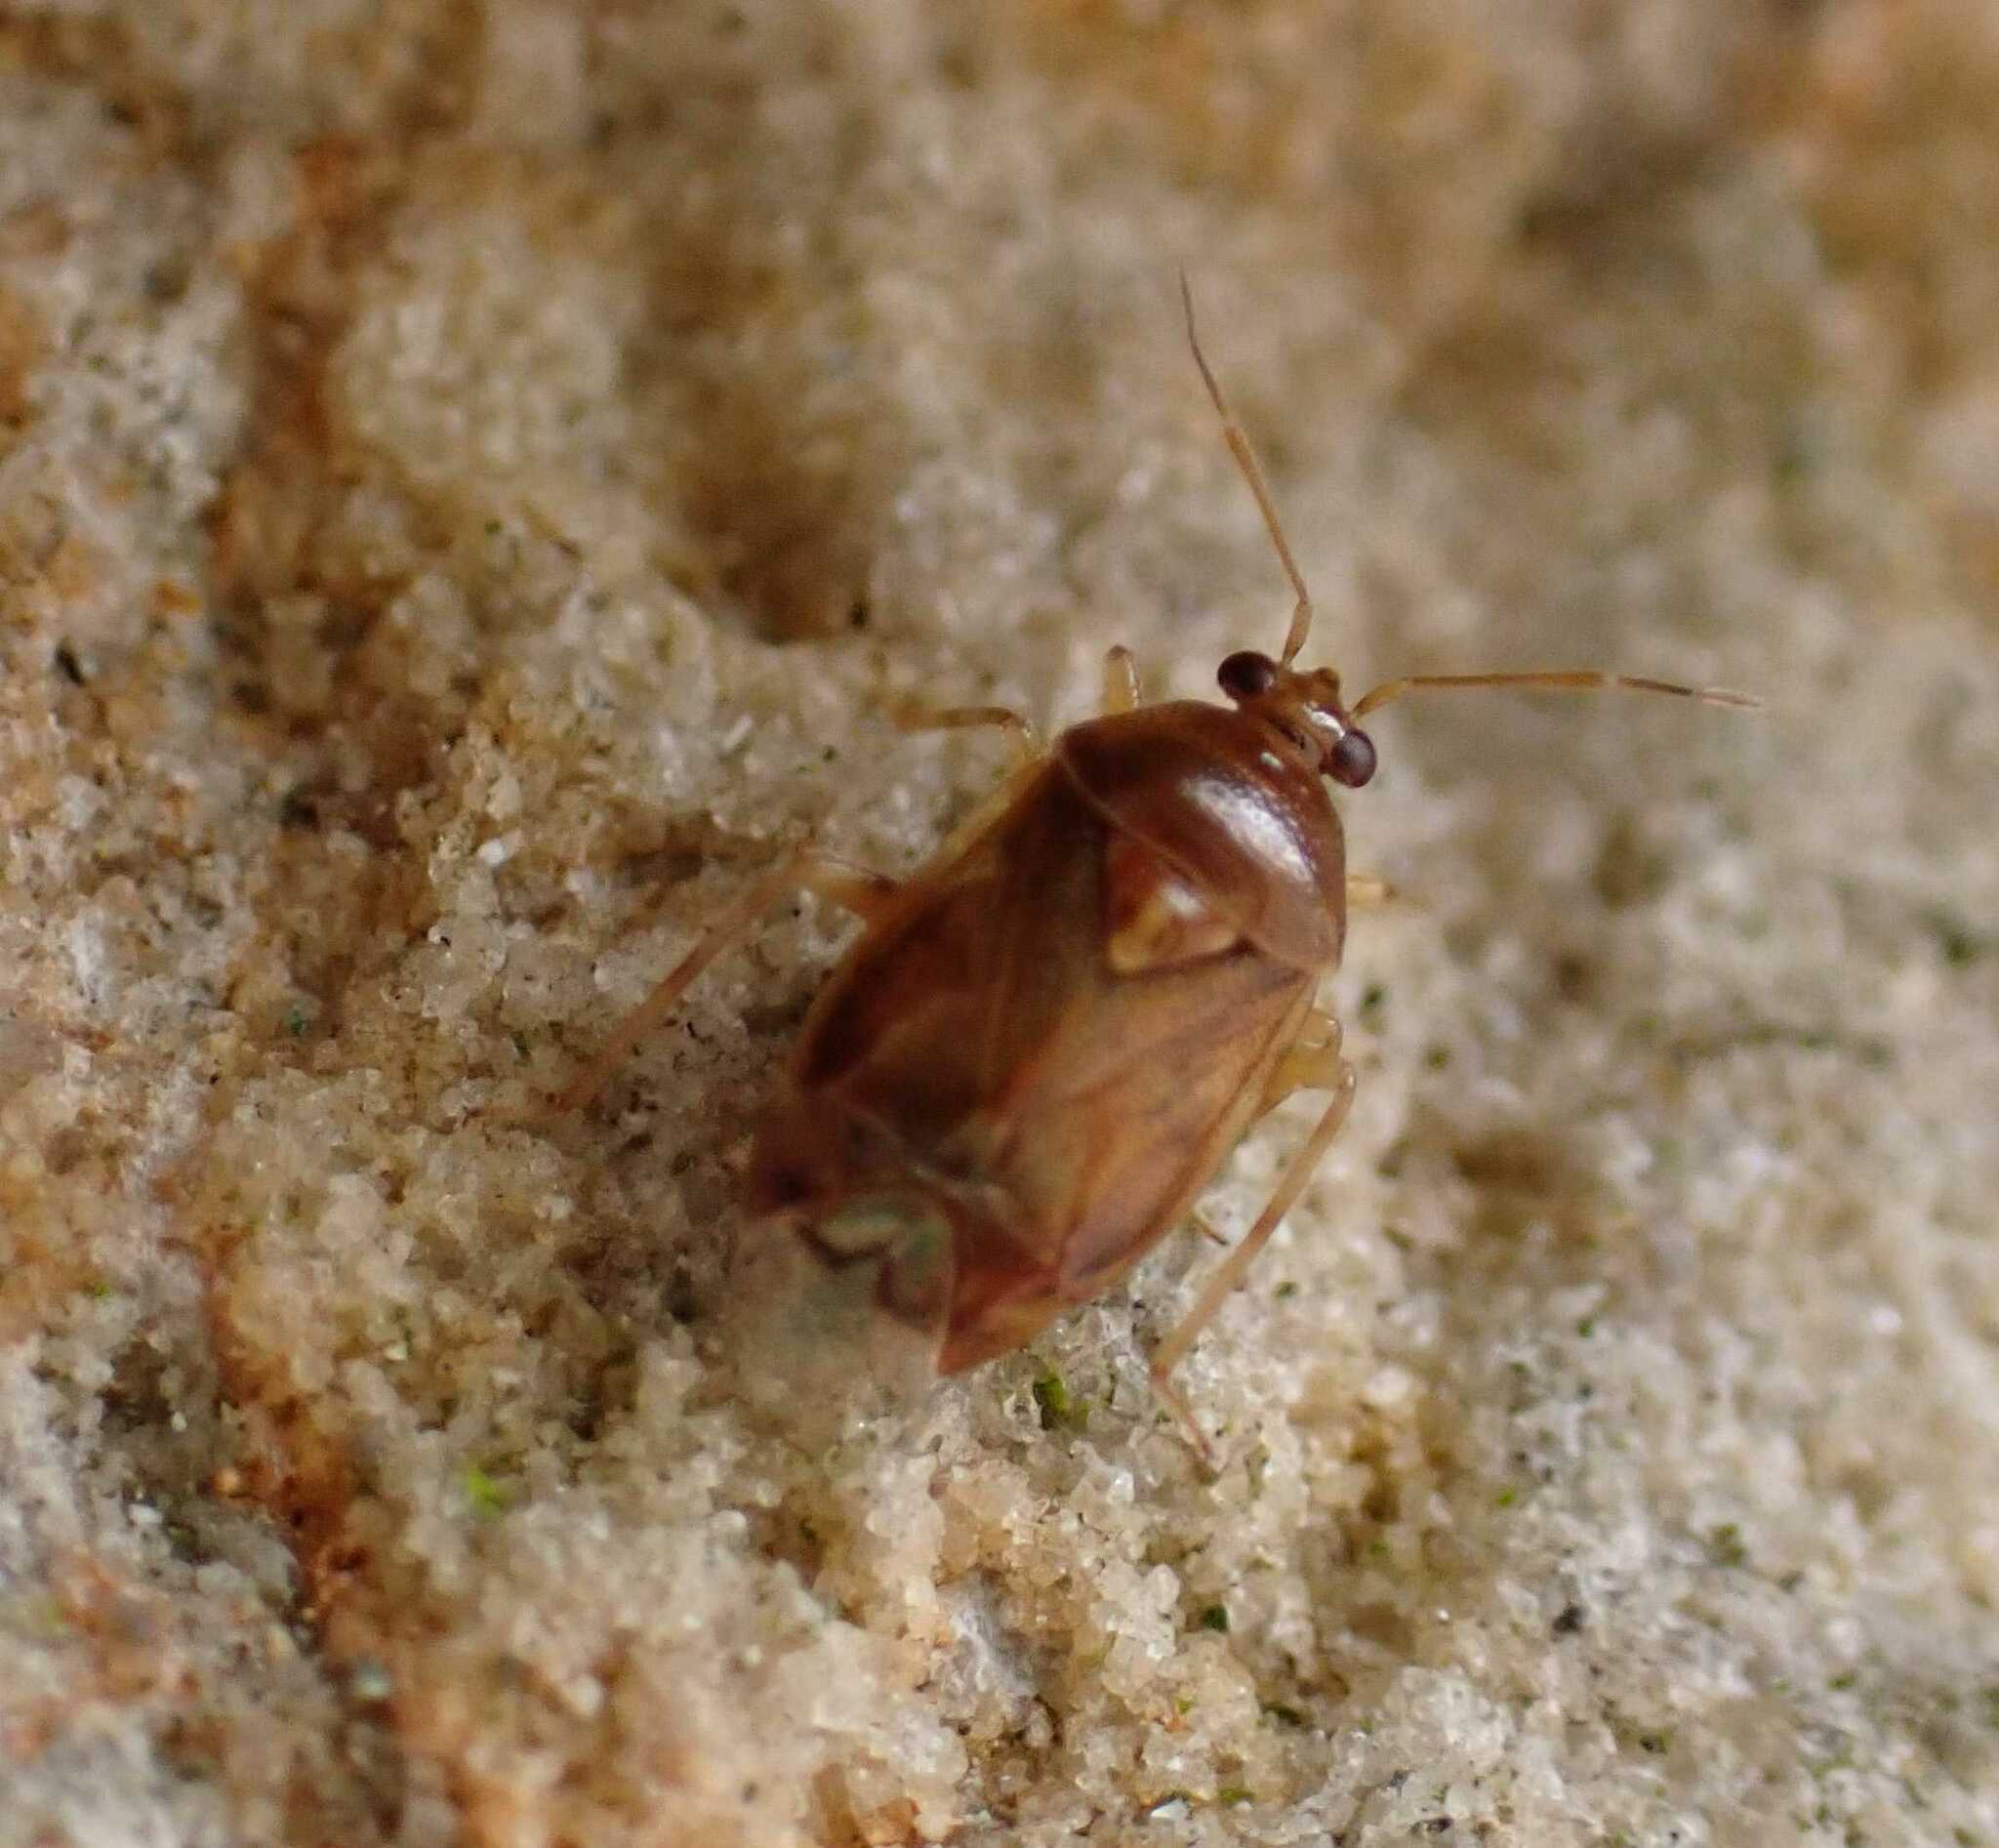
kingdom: Animalia
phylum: Arthropoda
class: Insecta
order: Hemiptera
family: Miridae
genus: Deraeocoris
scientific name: Deraeocoris lutescens
